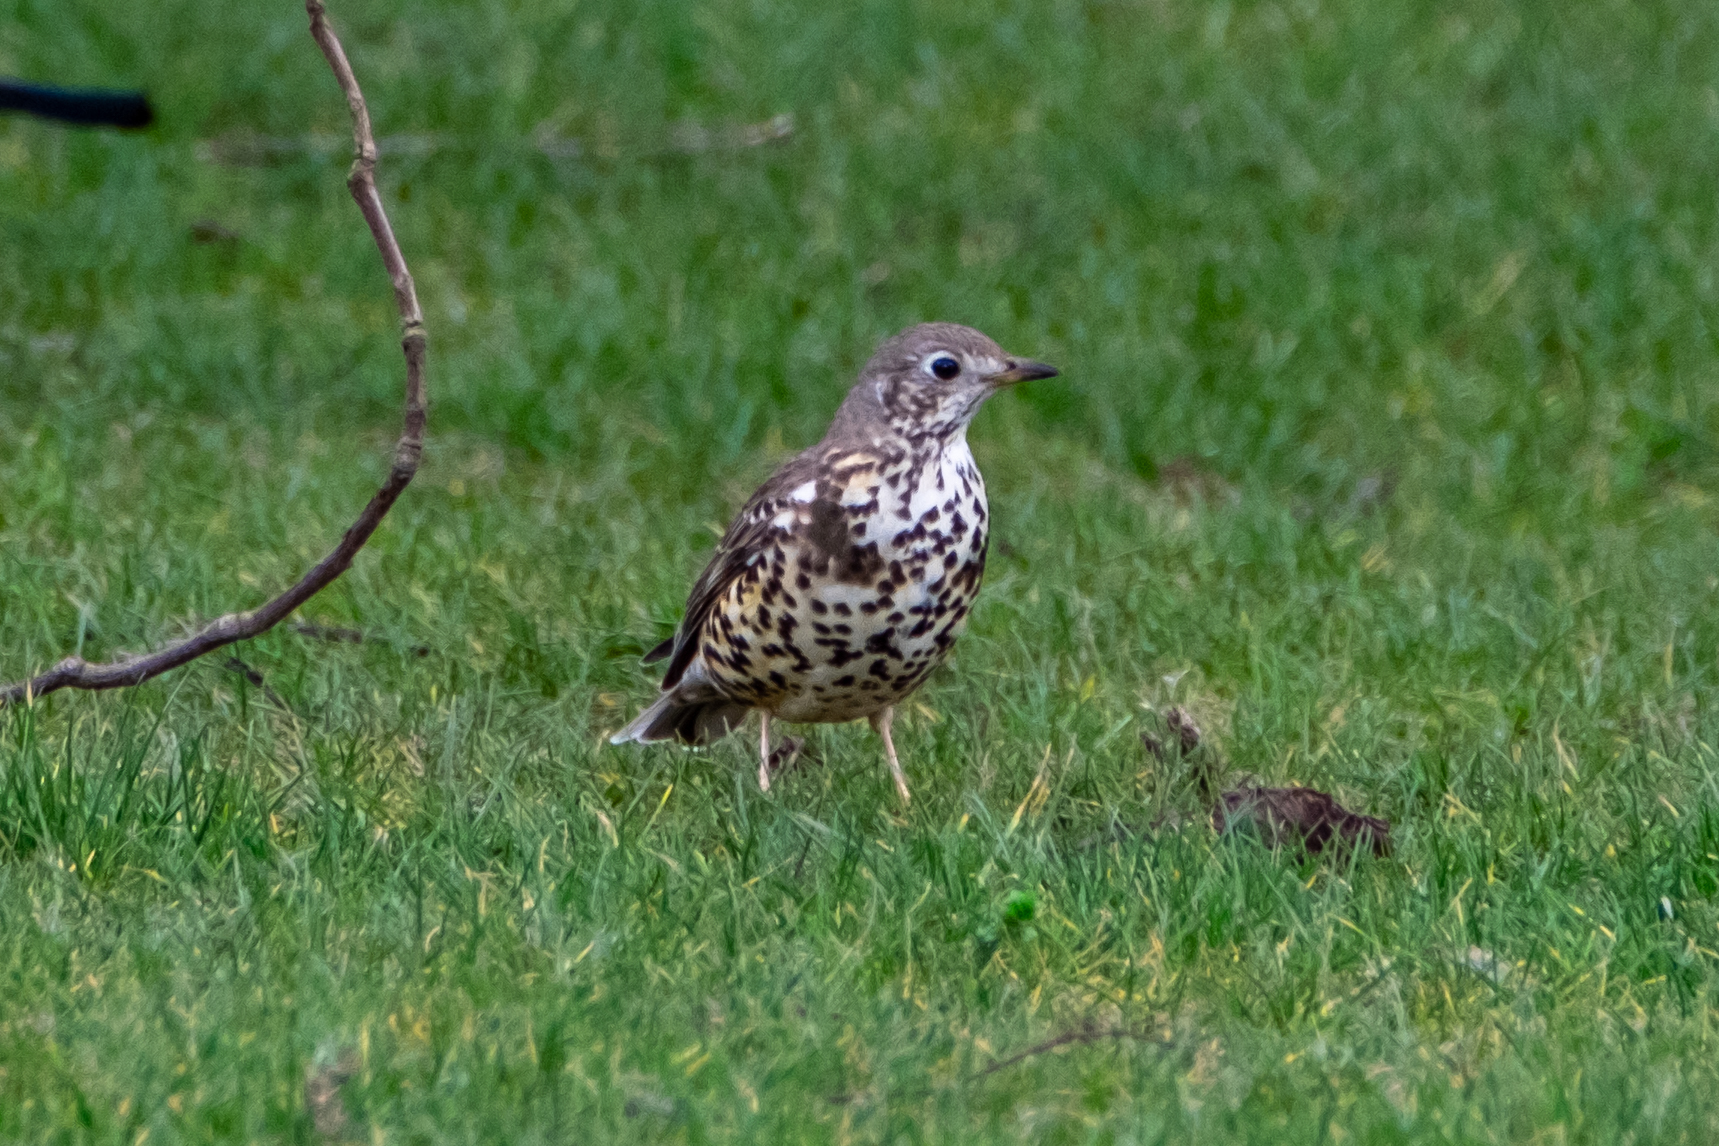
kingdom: Animalia
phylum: Chordata
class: Aves
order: Passeriformes
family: Turdidae
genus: Turdus
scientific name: Turdus viscivorus
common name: Mistle thrush
